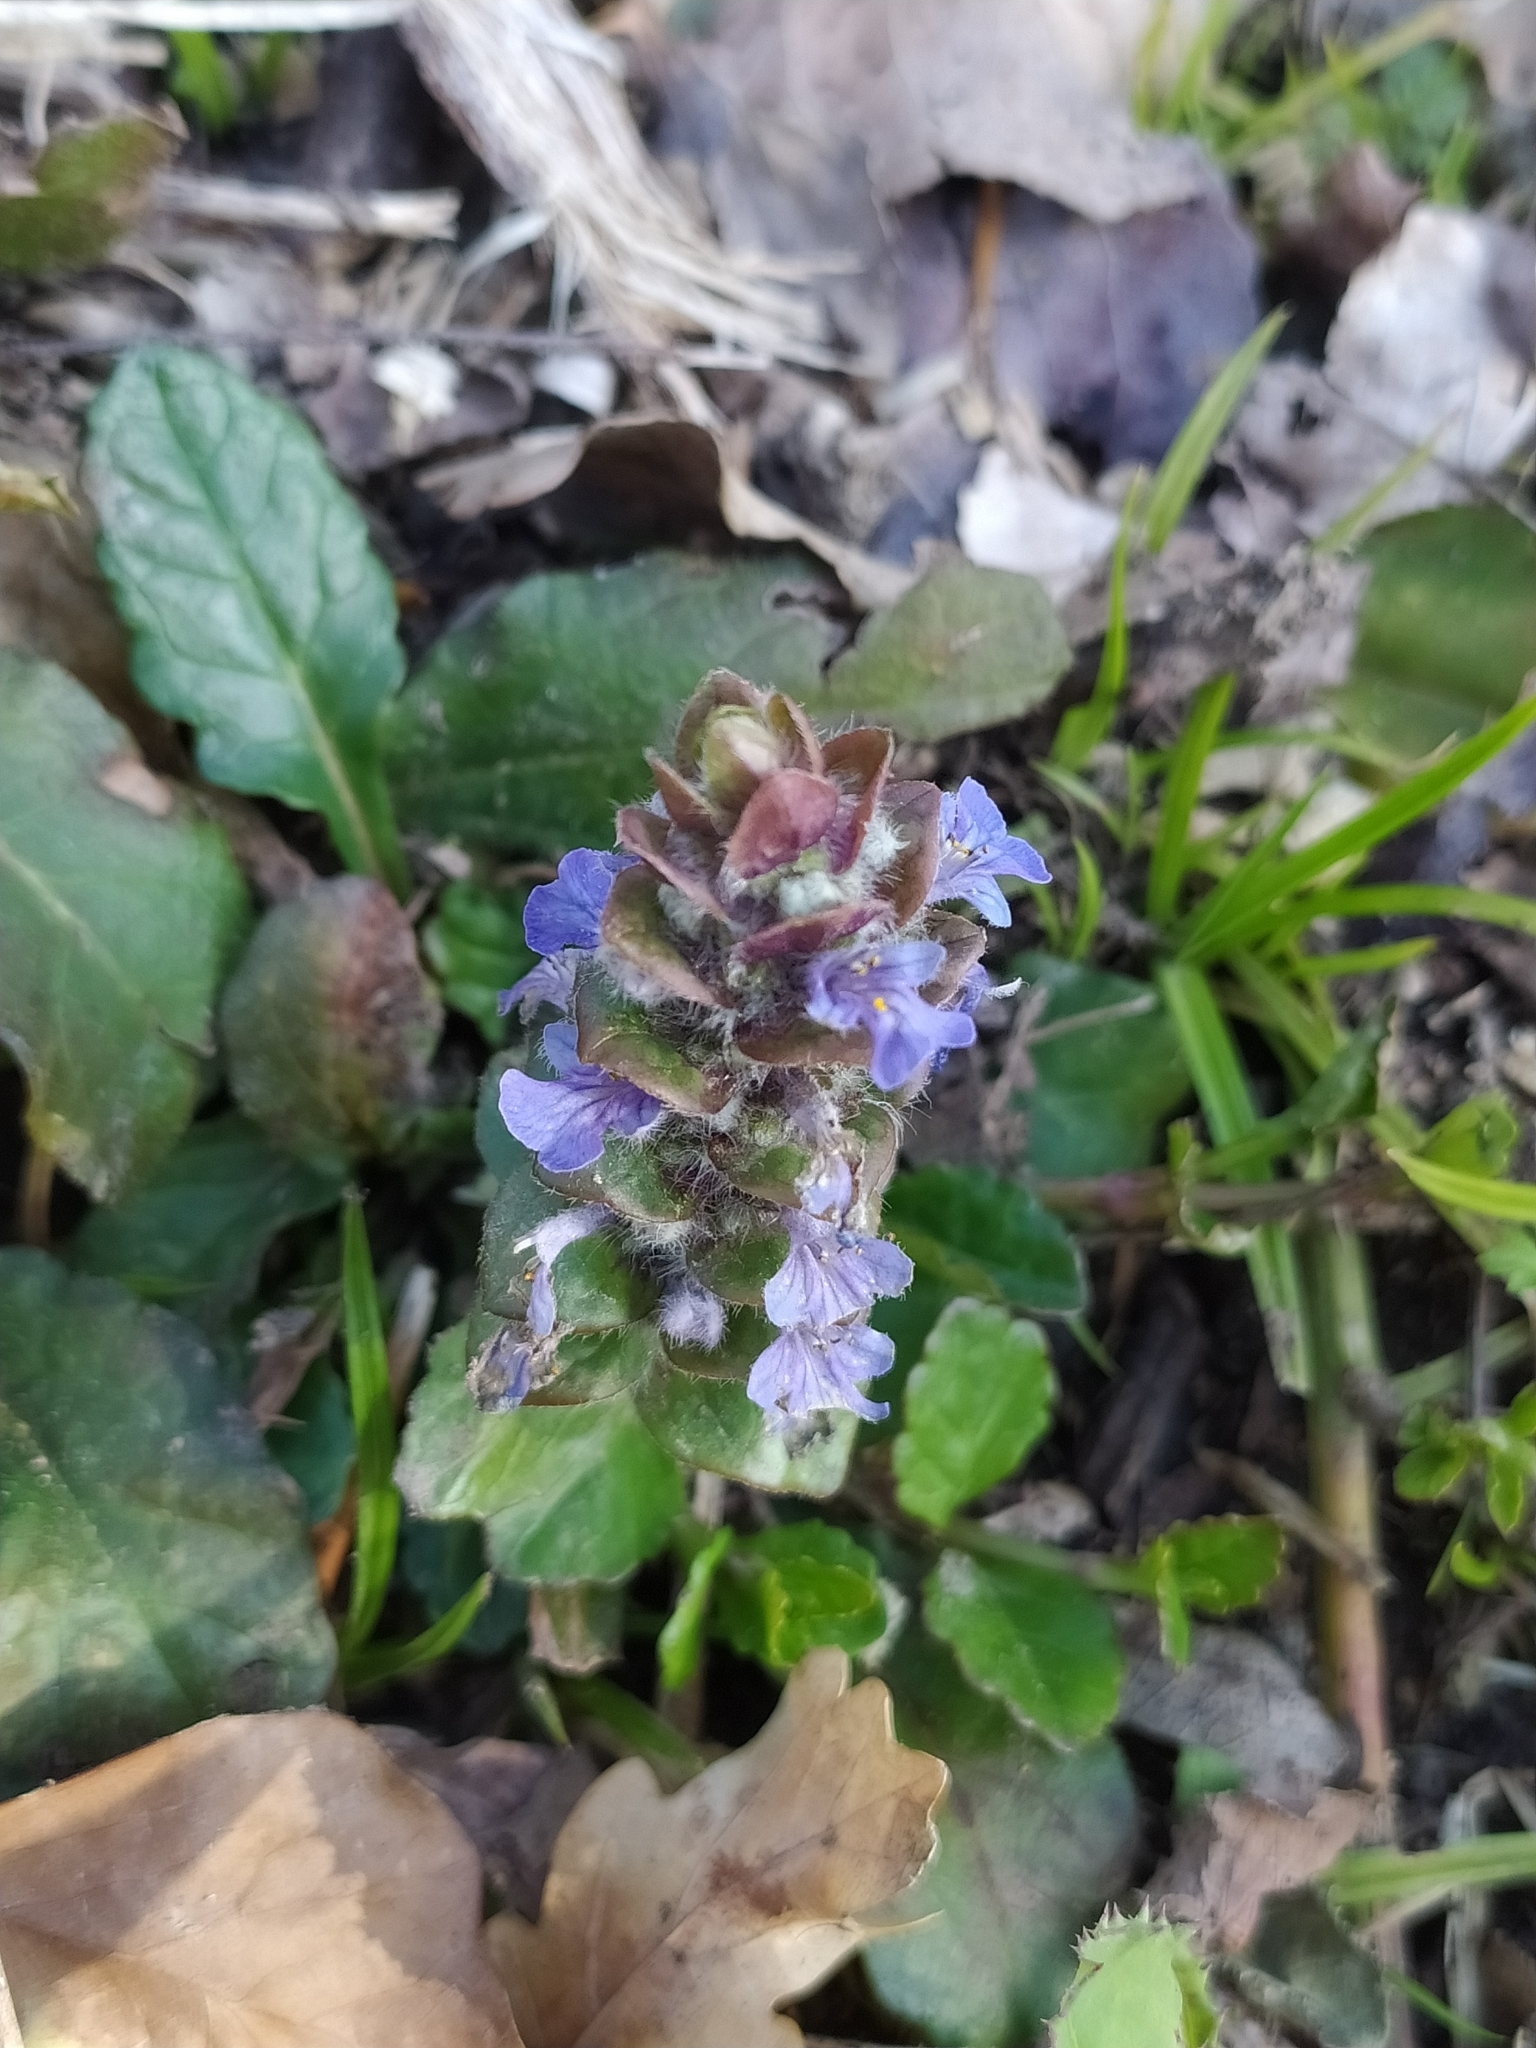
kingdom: Plantae
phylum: Tracheophyta
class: Magnoliopsida
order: Lamiales
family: Lamiaceae
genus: Ajuga
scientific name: Ajuga reptans
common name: Bugle
